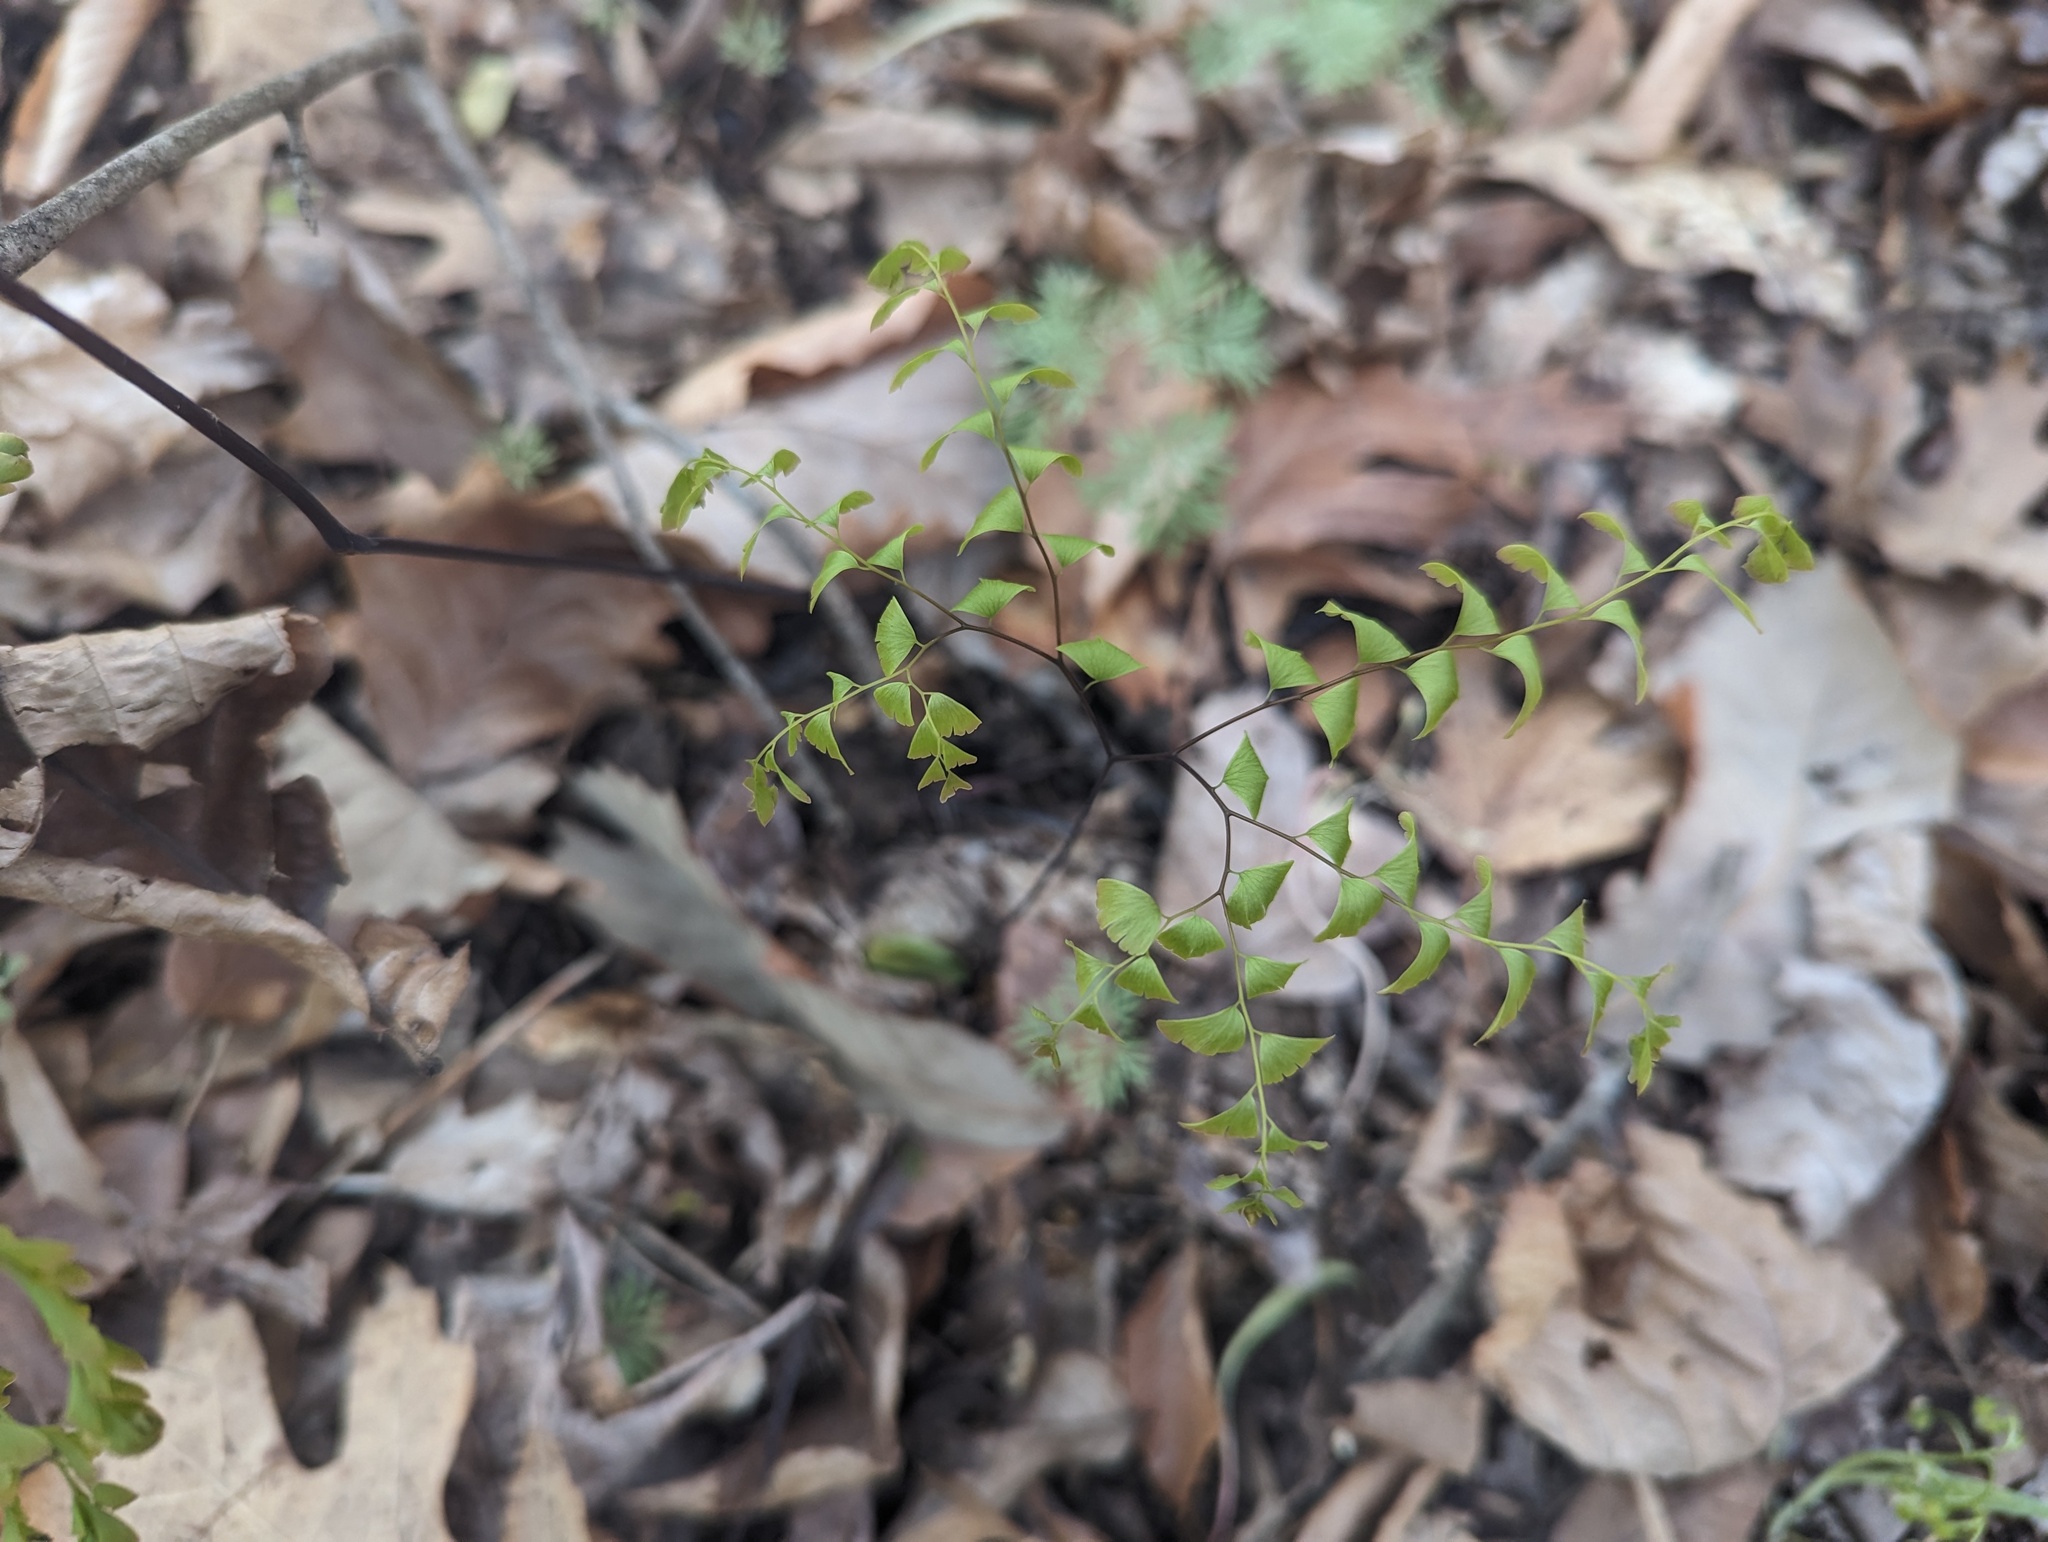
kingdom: Plantae
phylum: Tracheophyta
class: Polypodiopsida
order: Polypodiales
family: Pteridaceae
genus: Adiantum
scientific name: Adiantum pedatum
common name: Five-finger fern
